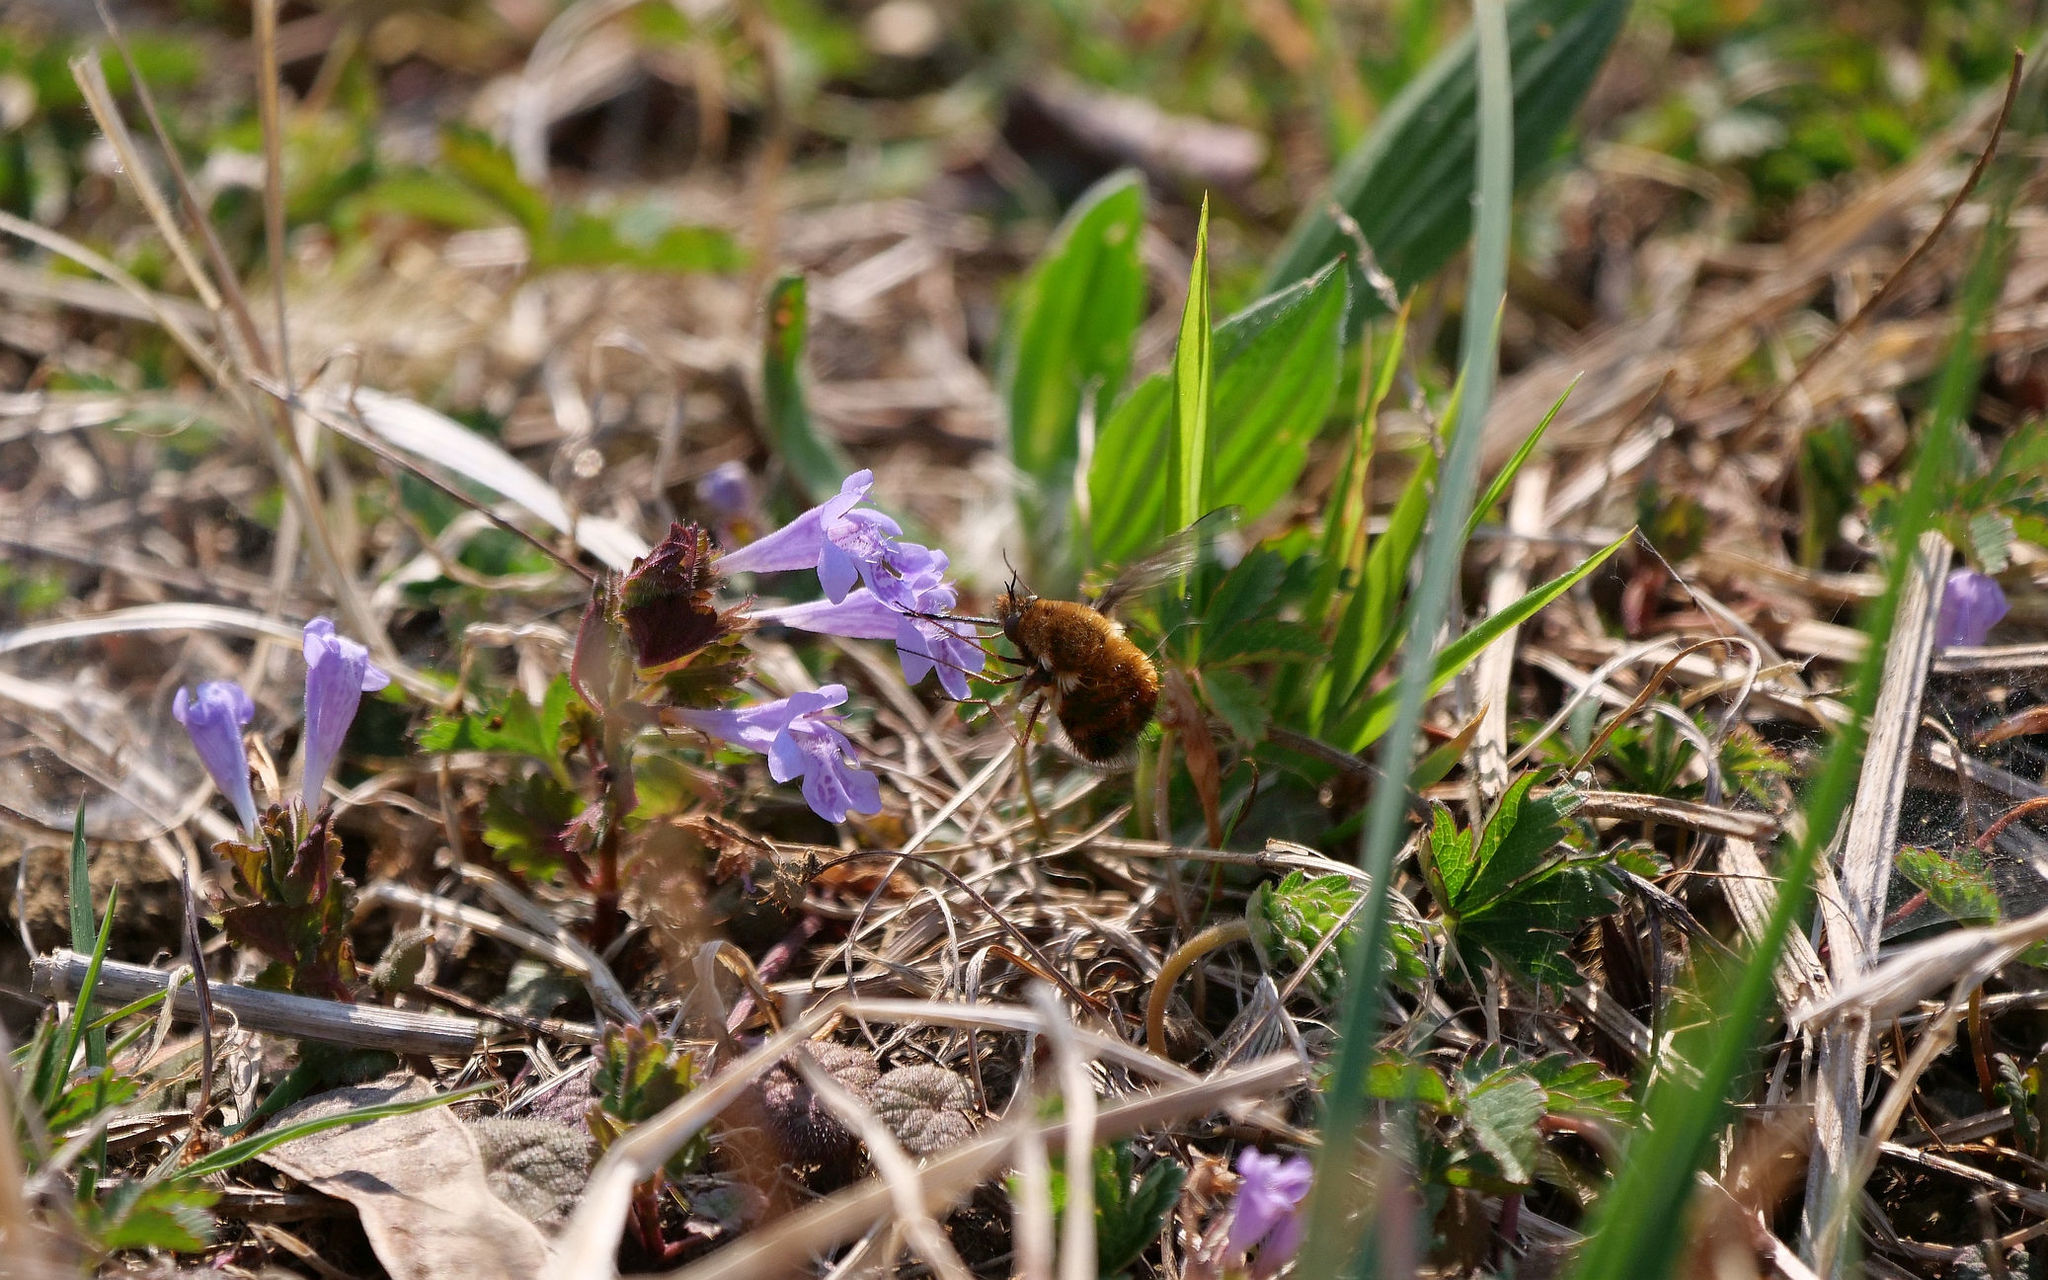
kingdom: Animalia
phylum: Arthropoda
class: Insecta
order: Diptera
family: Bombyliidae
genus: Bombylius
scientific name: Bombylius discolor
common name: Dotted bee-fly
